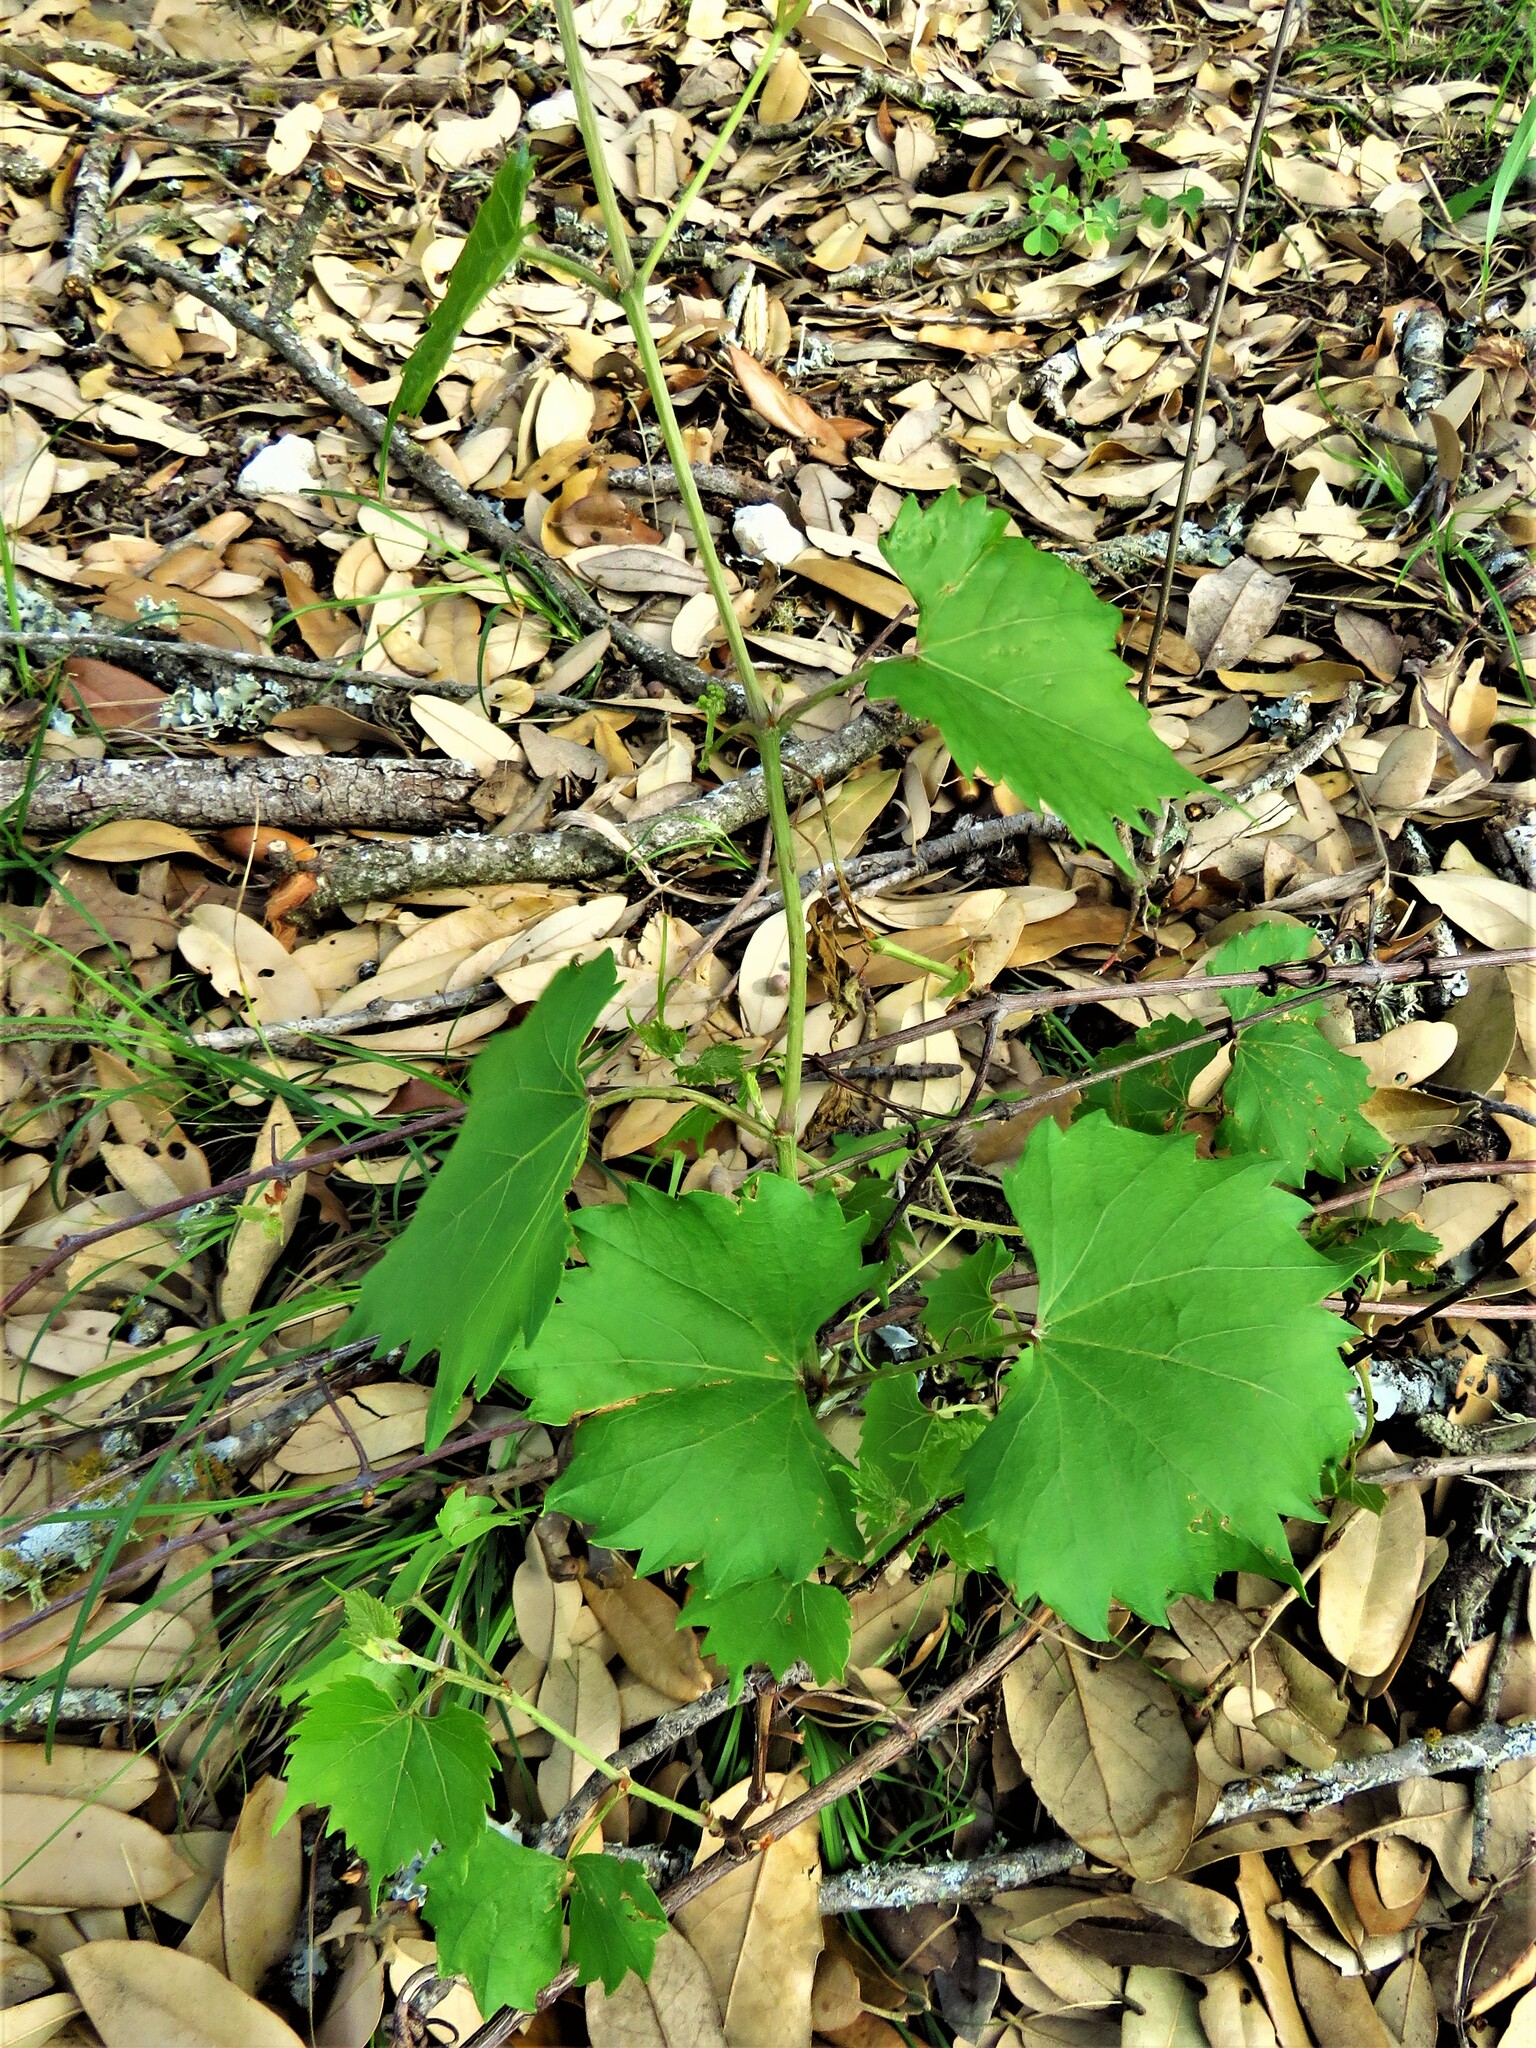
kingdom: Plantae
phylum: Tracheophyta
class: Magnoliopsida
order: Vitales
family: Vitaceae
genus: Vitis
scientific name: Vitis rotundifolia
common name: Muscadine grape
